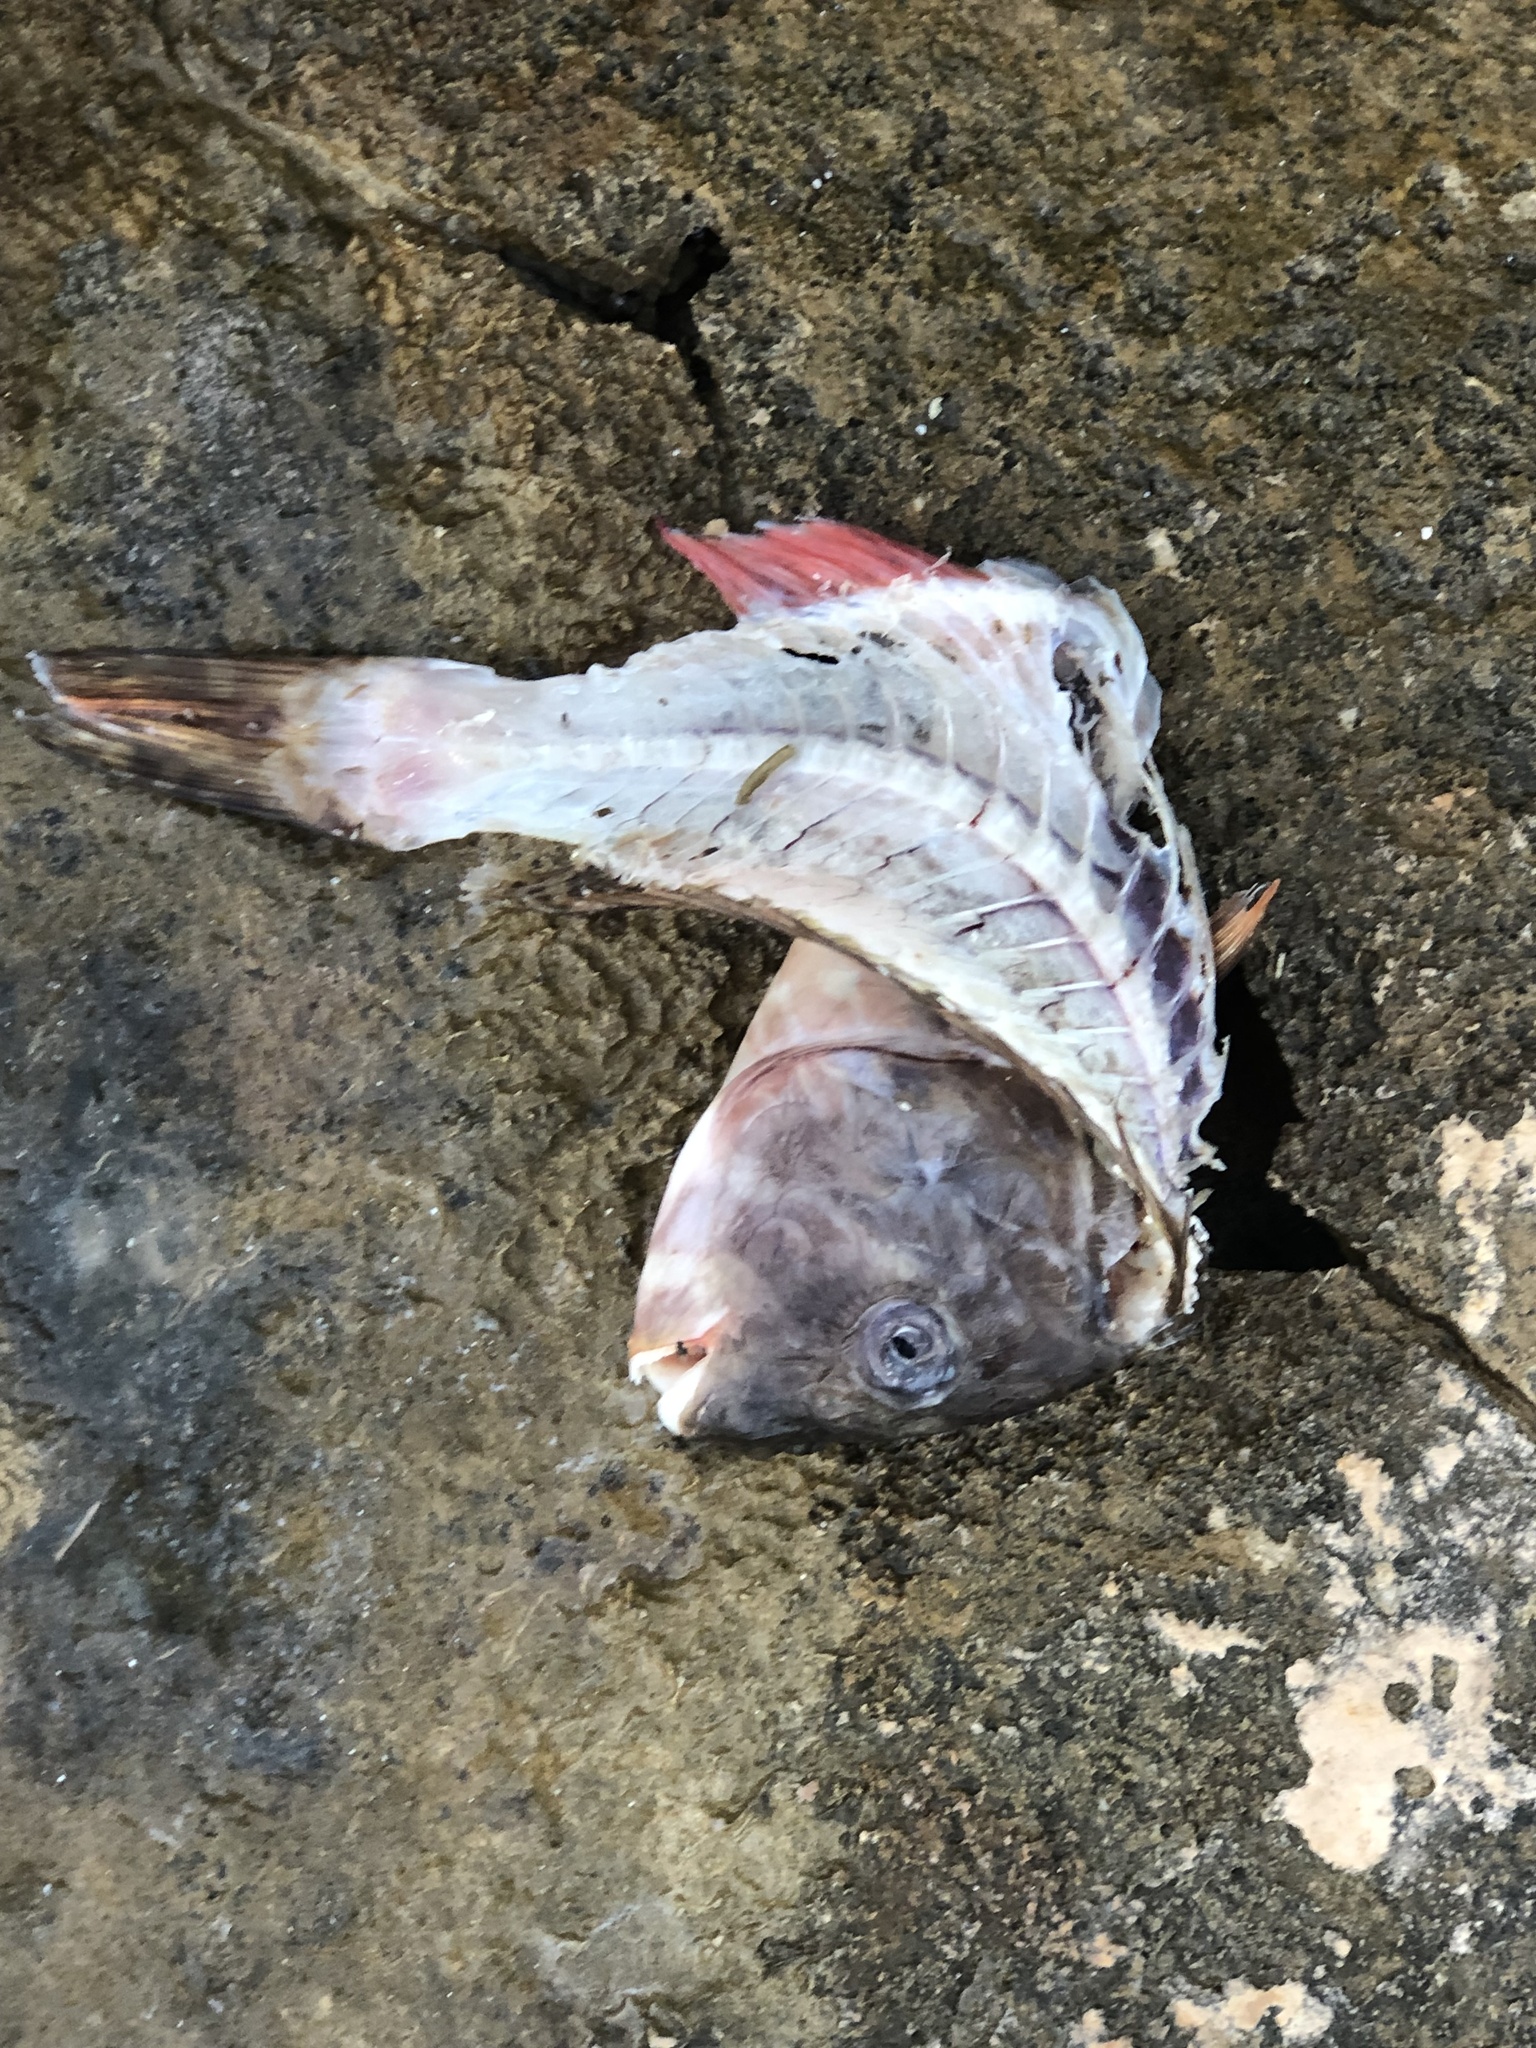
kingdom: Animalia
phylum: Chordata
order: Perciformes
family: Scaridae
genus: Sparisoma
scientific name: Sparisoma chrysopterum
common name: Redtail parrotfish
